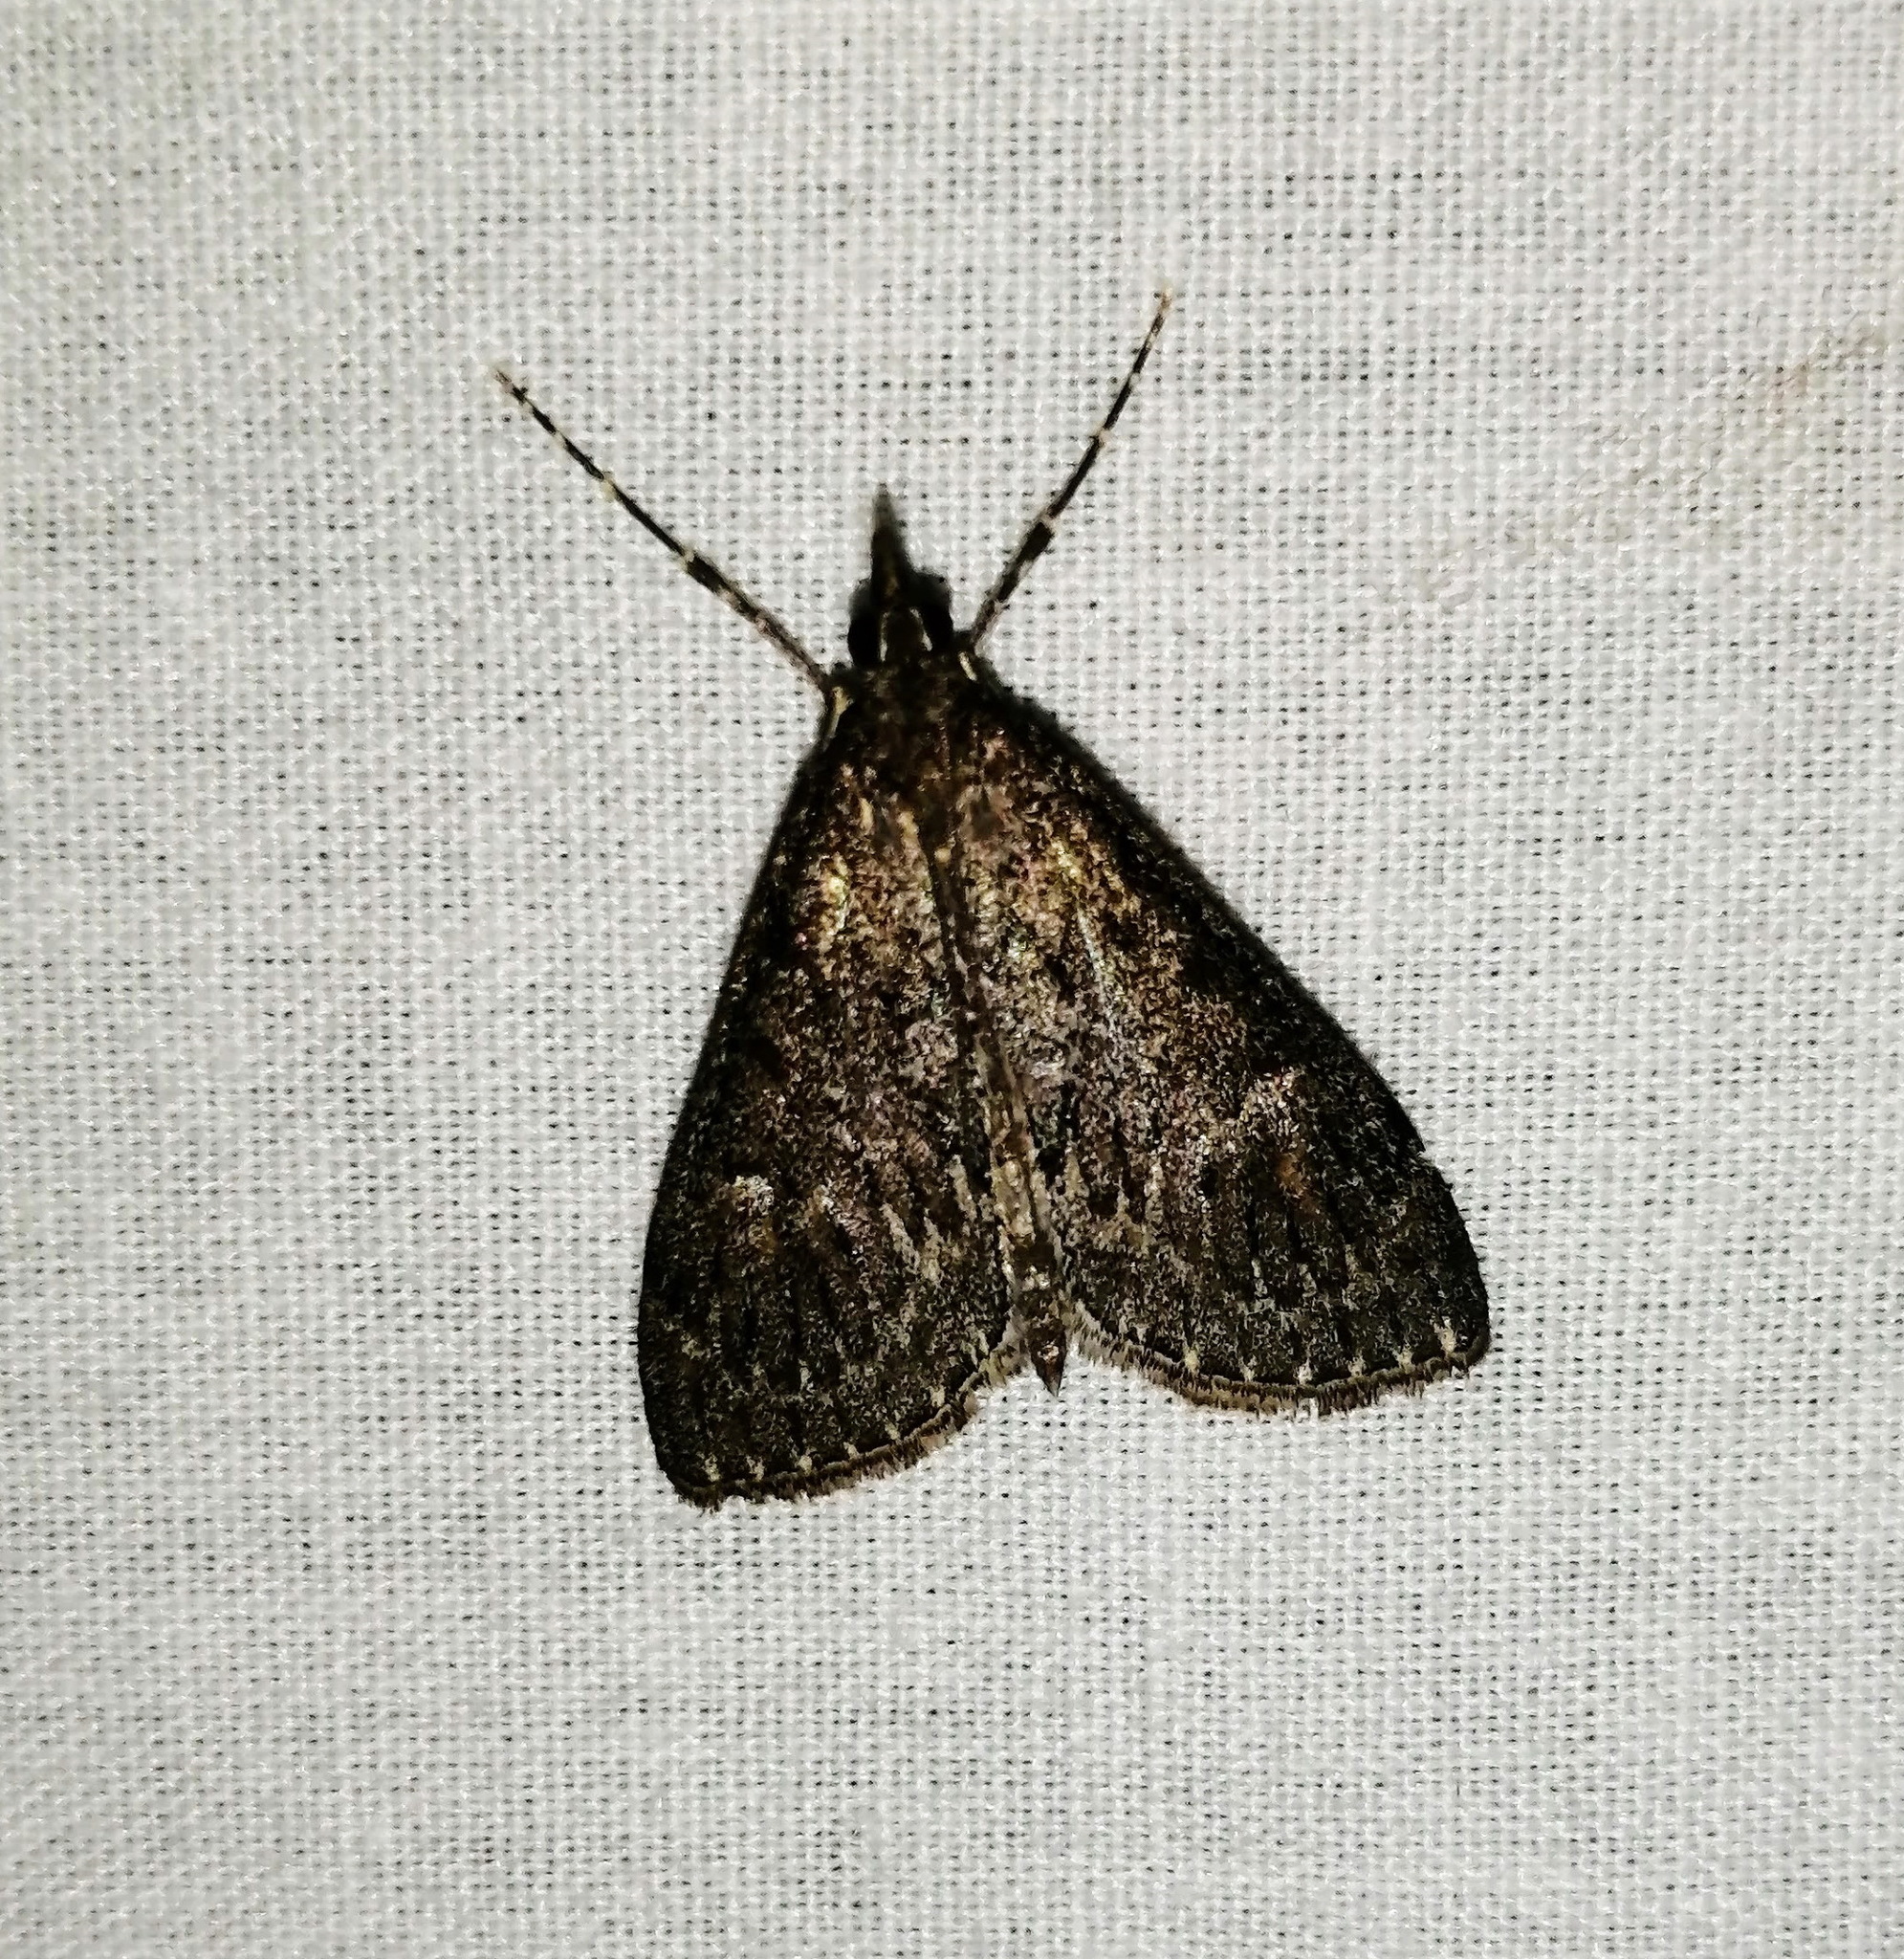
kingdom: Animalia
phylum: Arthropoda
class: Insecta
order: Lepidoptera
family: Crambidae
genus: Saucrobotys
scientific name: Saucrobotys fumoferalis
